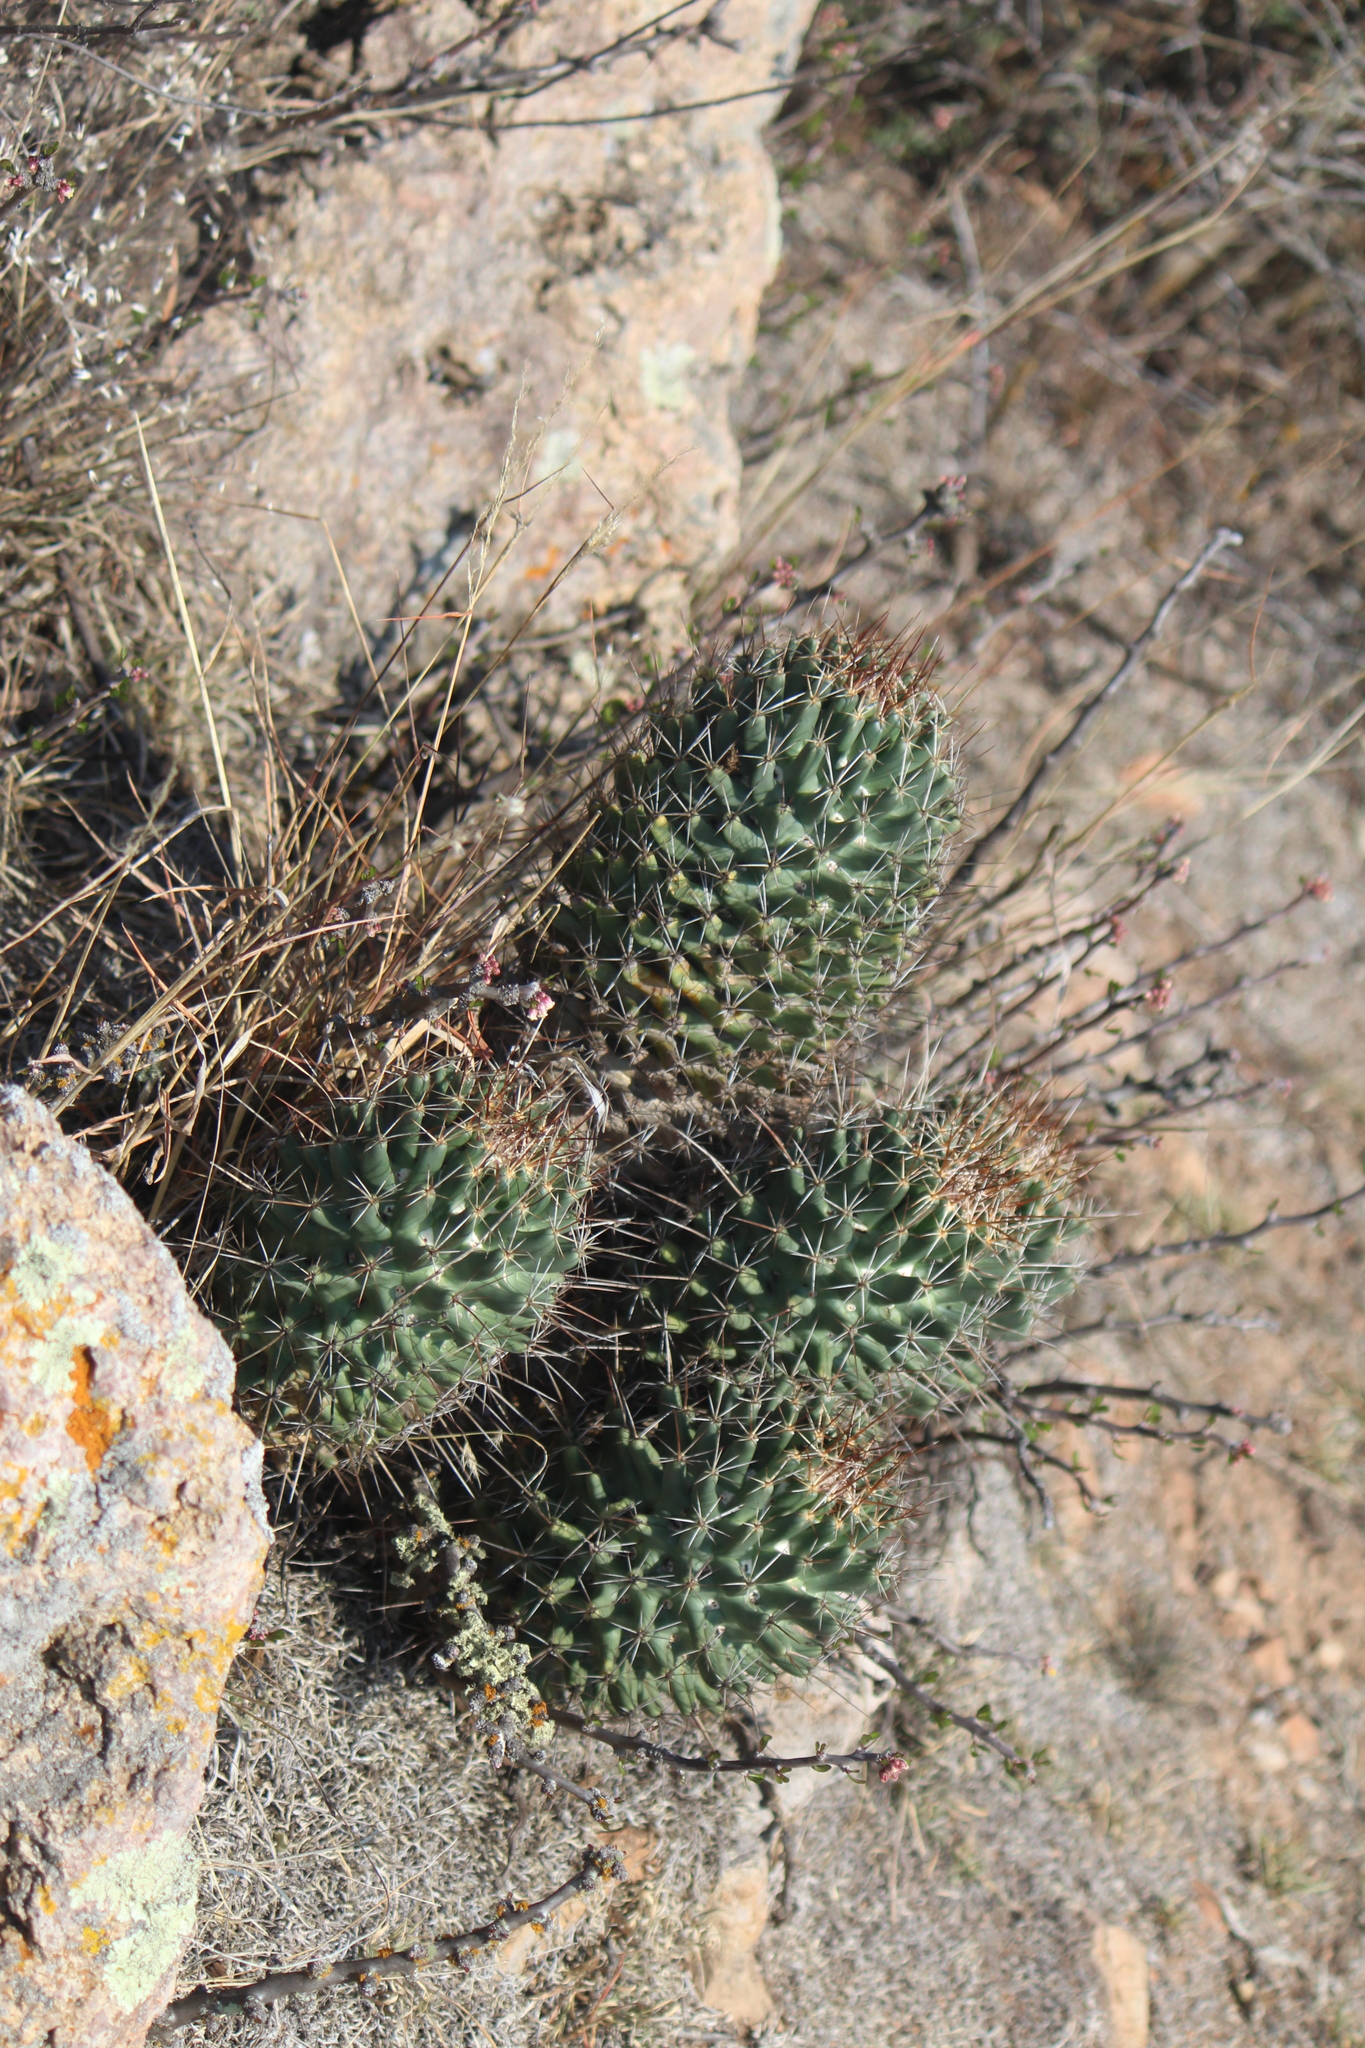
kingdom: Plantae
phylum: Tracheophyta
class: Magnoliopsida
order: Caryophyllales
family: Cactaceae
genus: Coryphantha
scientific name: Coryphantha octacantha
